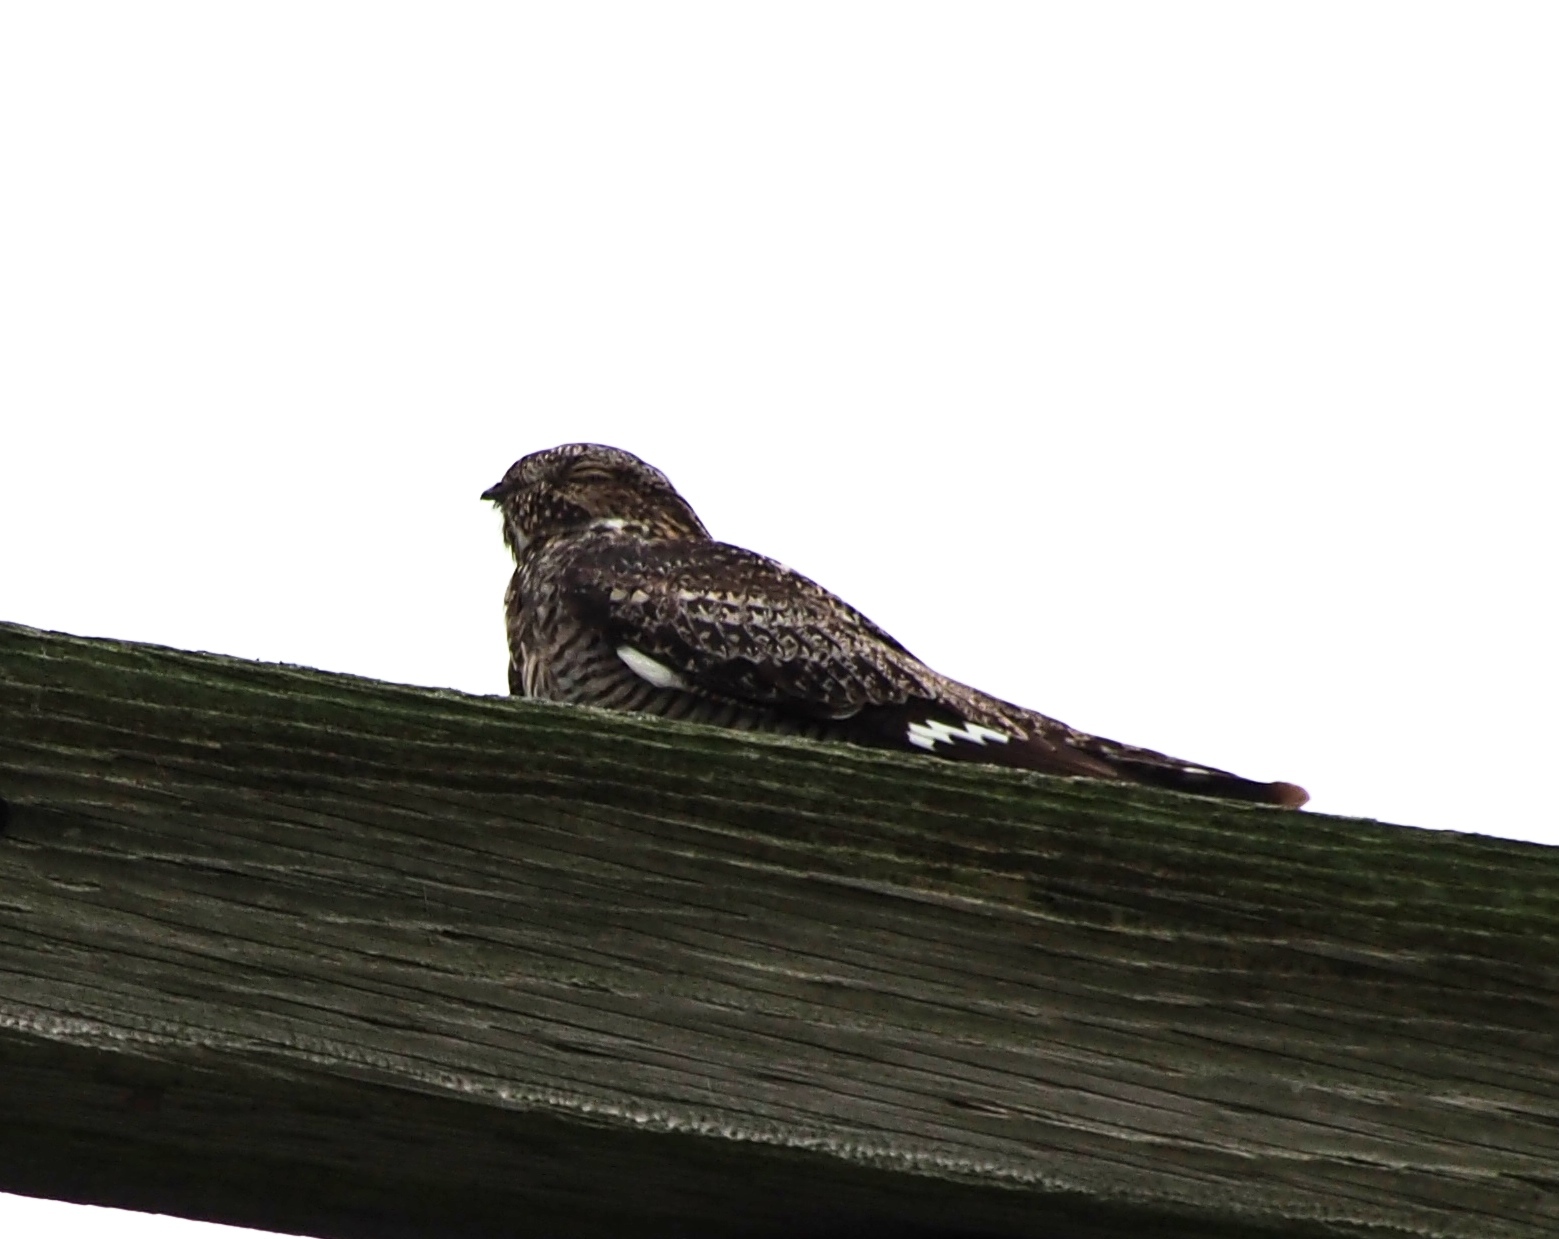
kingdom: Animalia
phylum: Chordata
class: Aves
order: Caprimulgiformes
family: Caprimulgidae
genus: Chordeiles
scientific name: Chordeiles minor
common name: Common nighthawk
